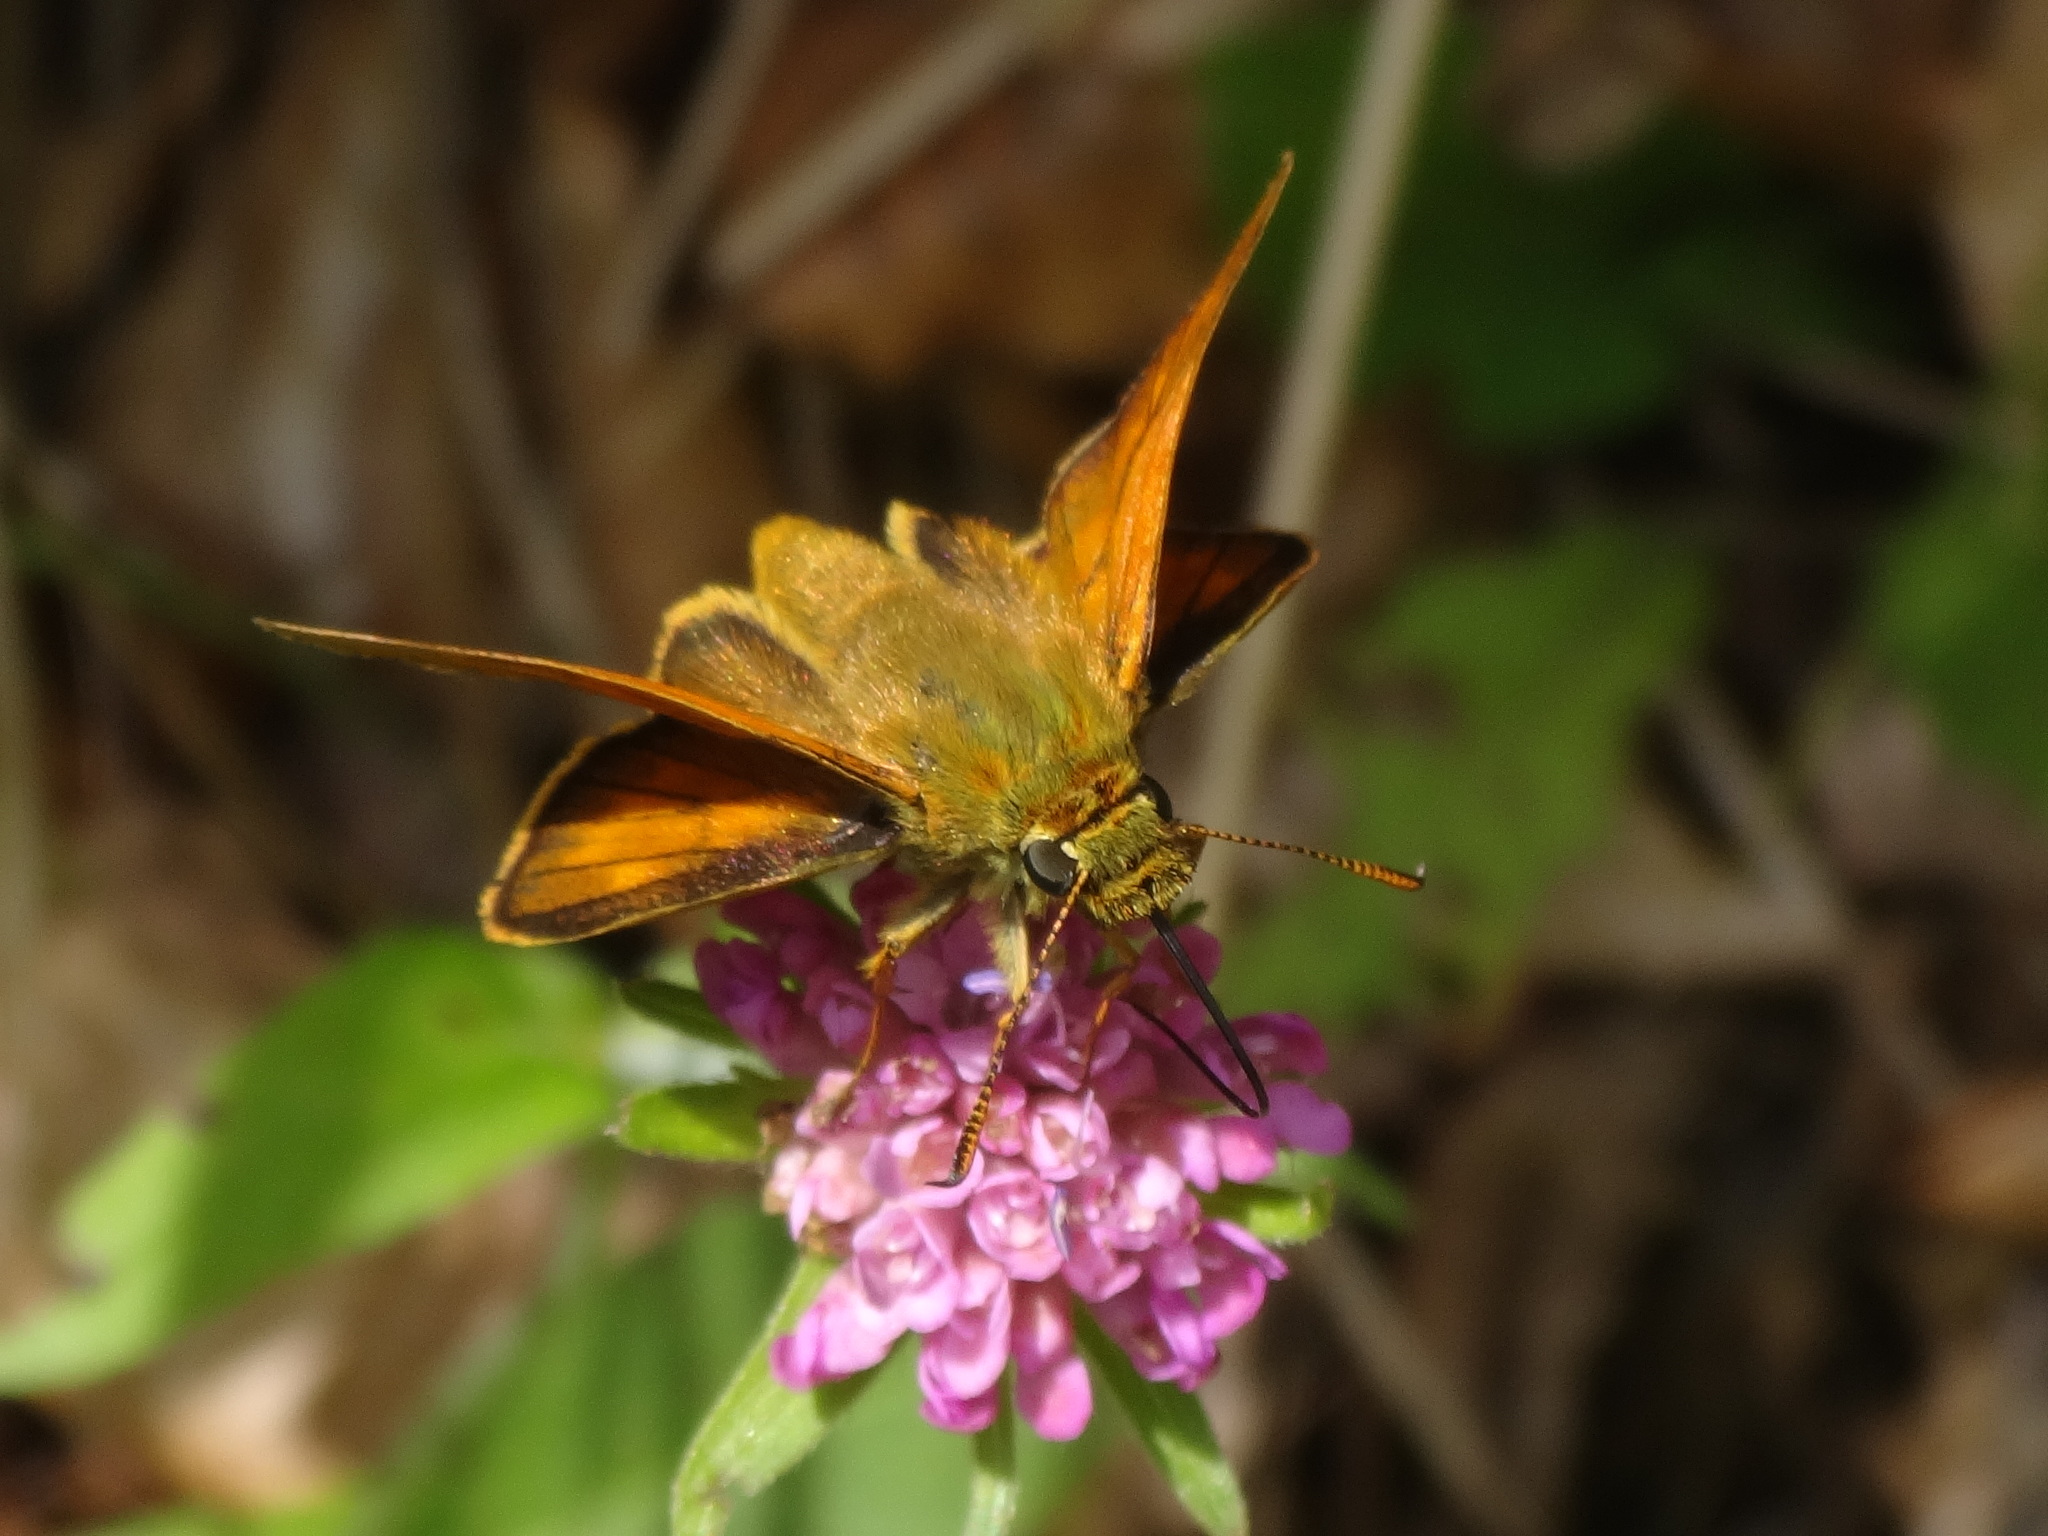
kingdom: Animalia
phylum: Arthropoda
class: Insecta
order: Lepidoptera
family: Hesperiidae
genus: Ochlodes
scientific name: Ochlodes venata
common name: Large skipper
